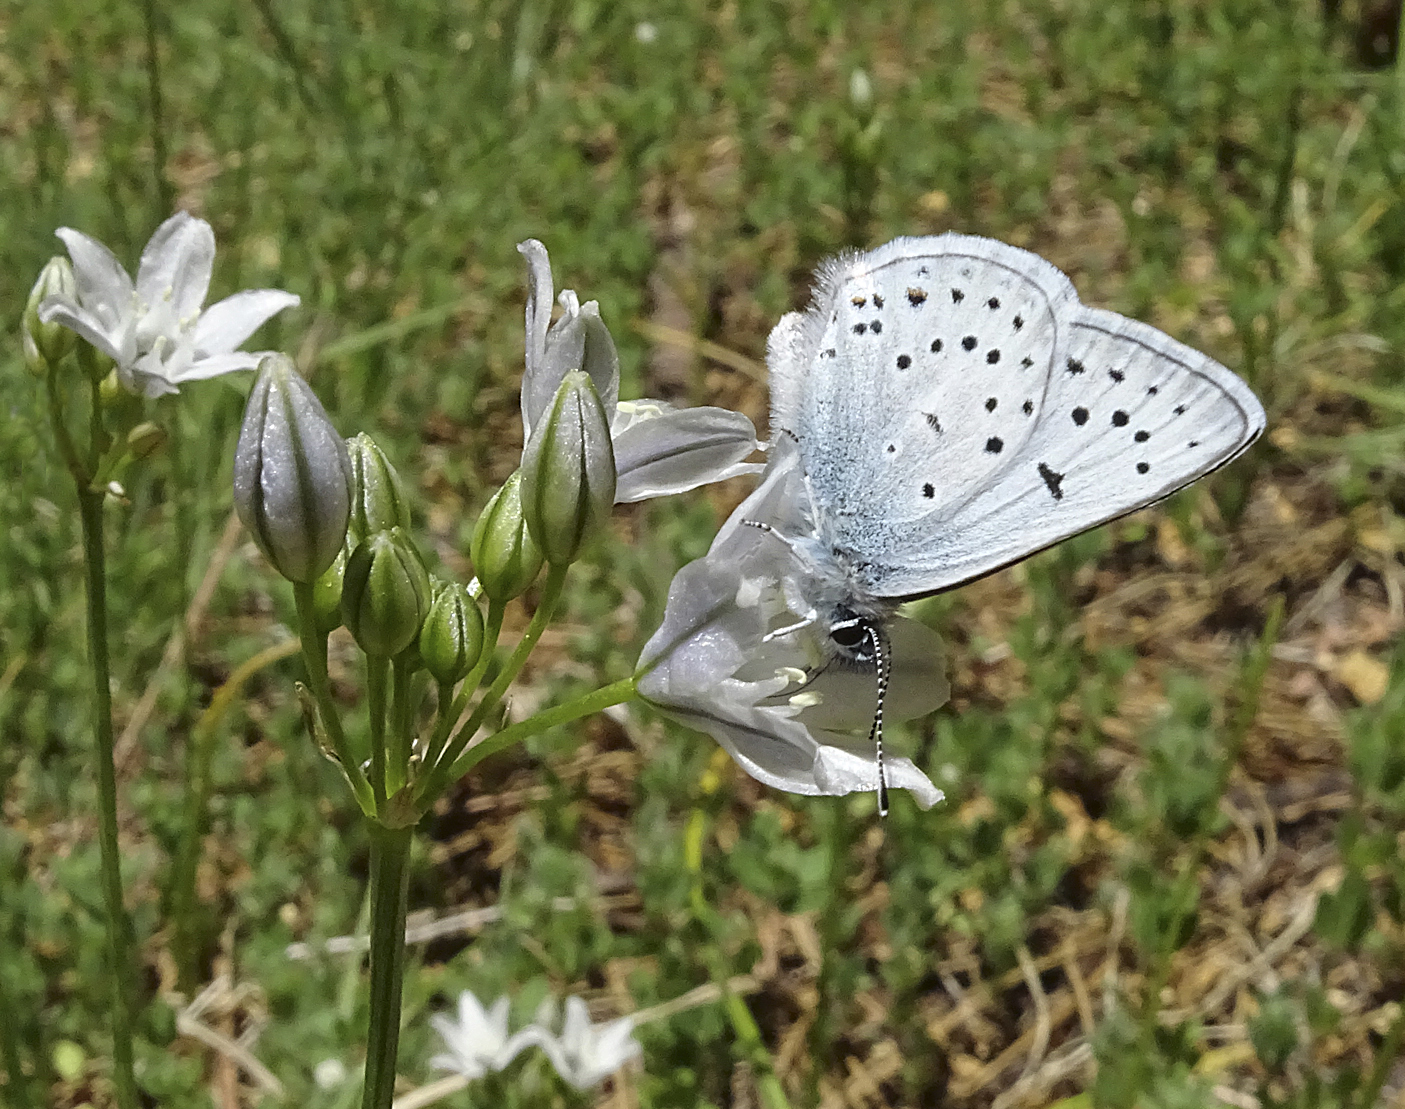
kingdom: Animalia
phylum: Arthropoda
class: Insecta
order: Lepidoptera
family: Lycaenidae
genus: Icaricia
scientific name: Icaricia saepiolus
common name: Greenish blue
